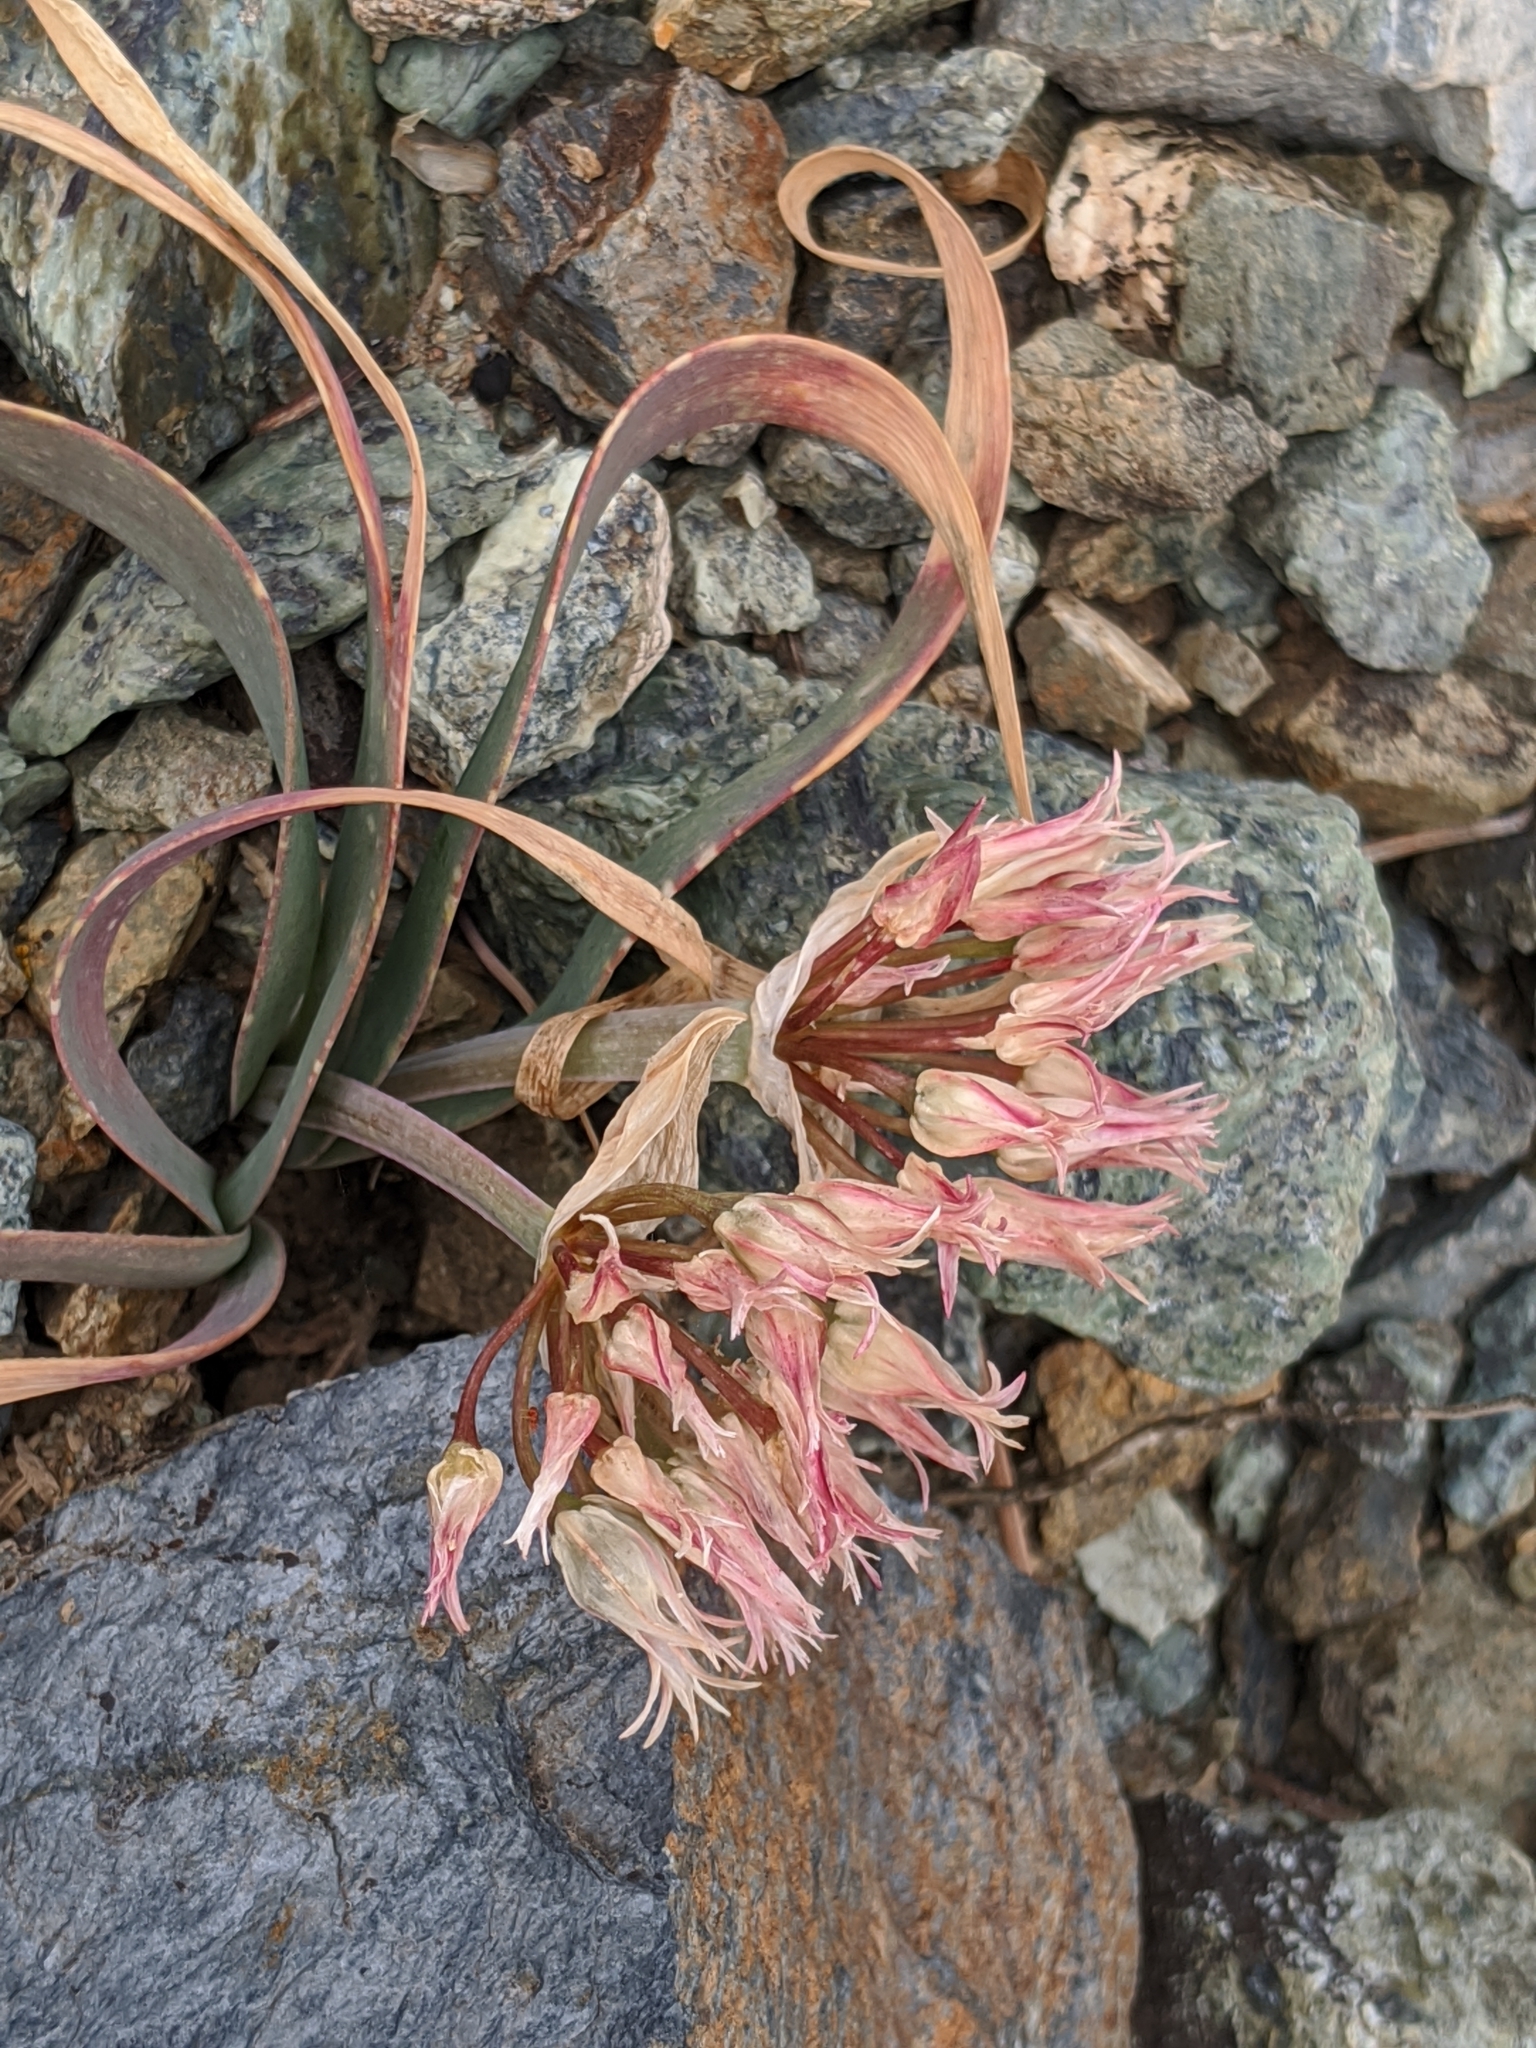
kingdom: Plantae
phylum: Tracheophyta
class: Liliopsida
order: Asparagales
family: Amaryllidaceae
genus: Allium
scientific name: Allium falcifolium
